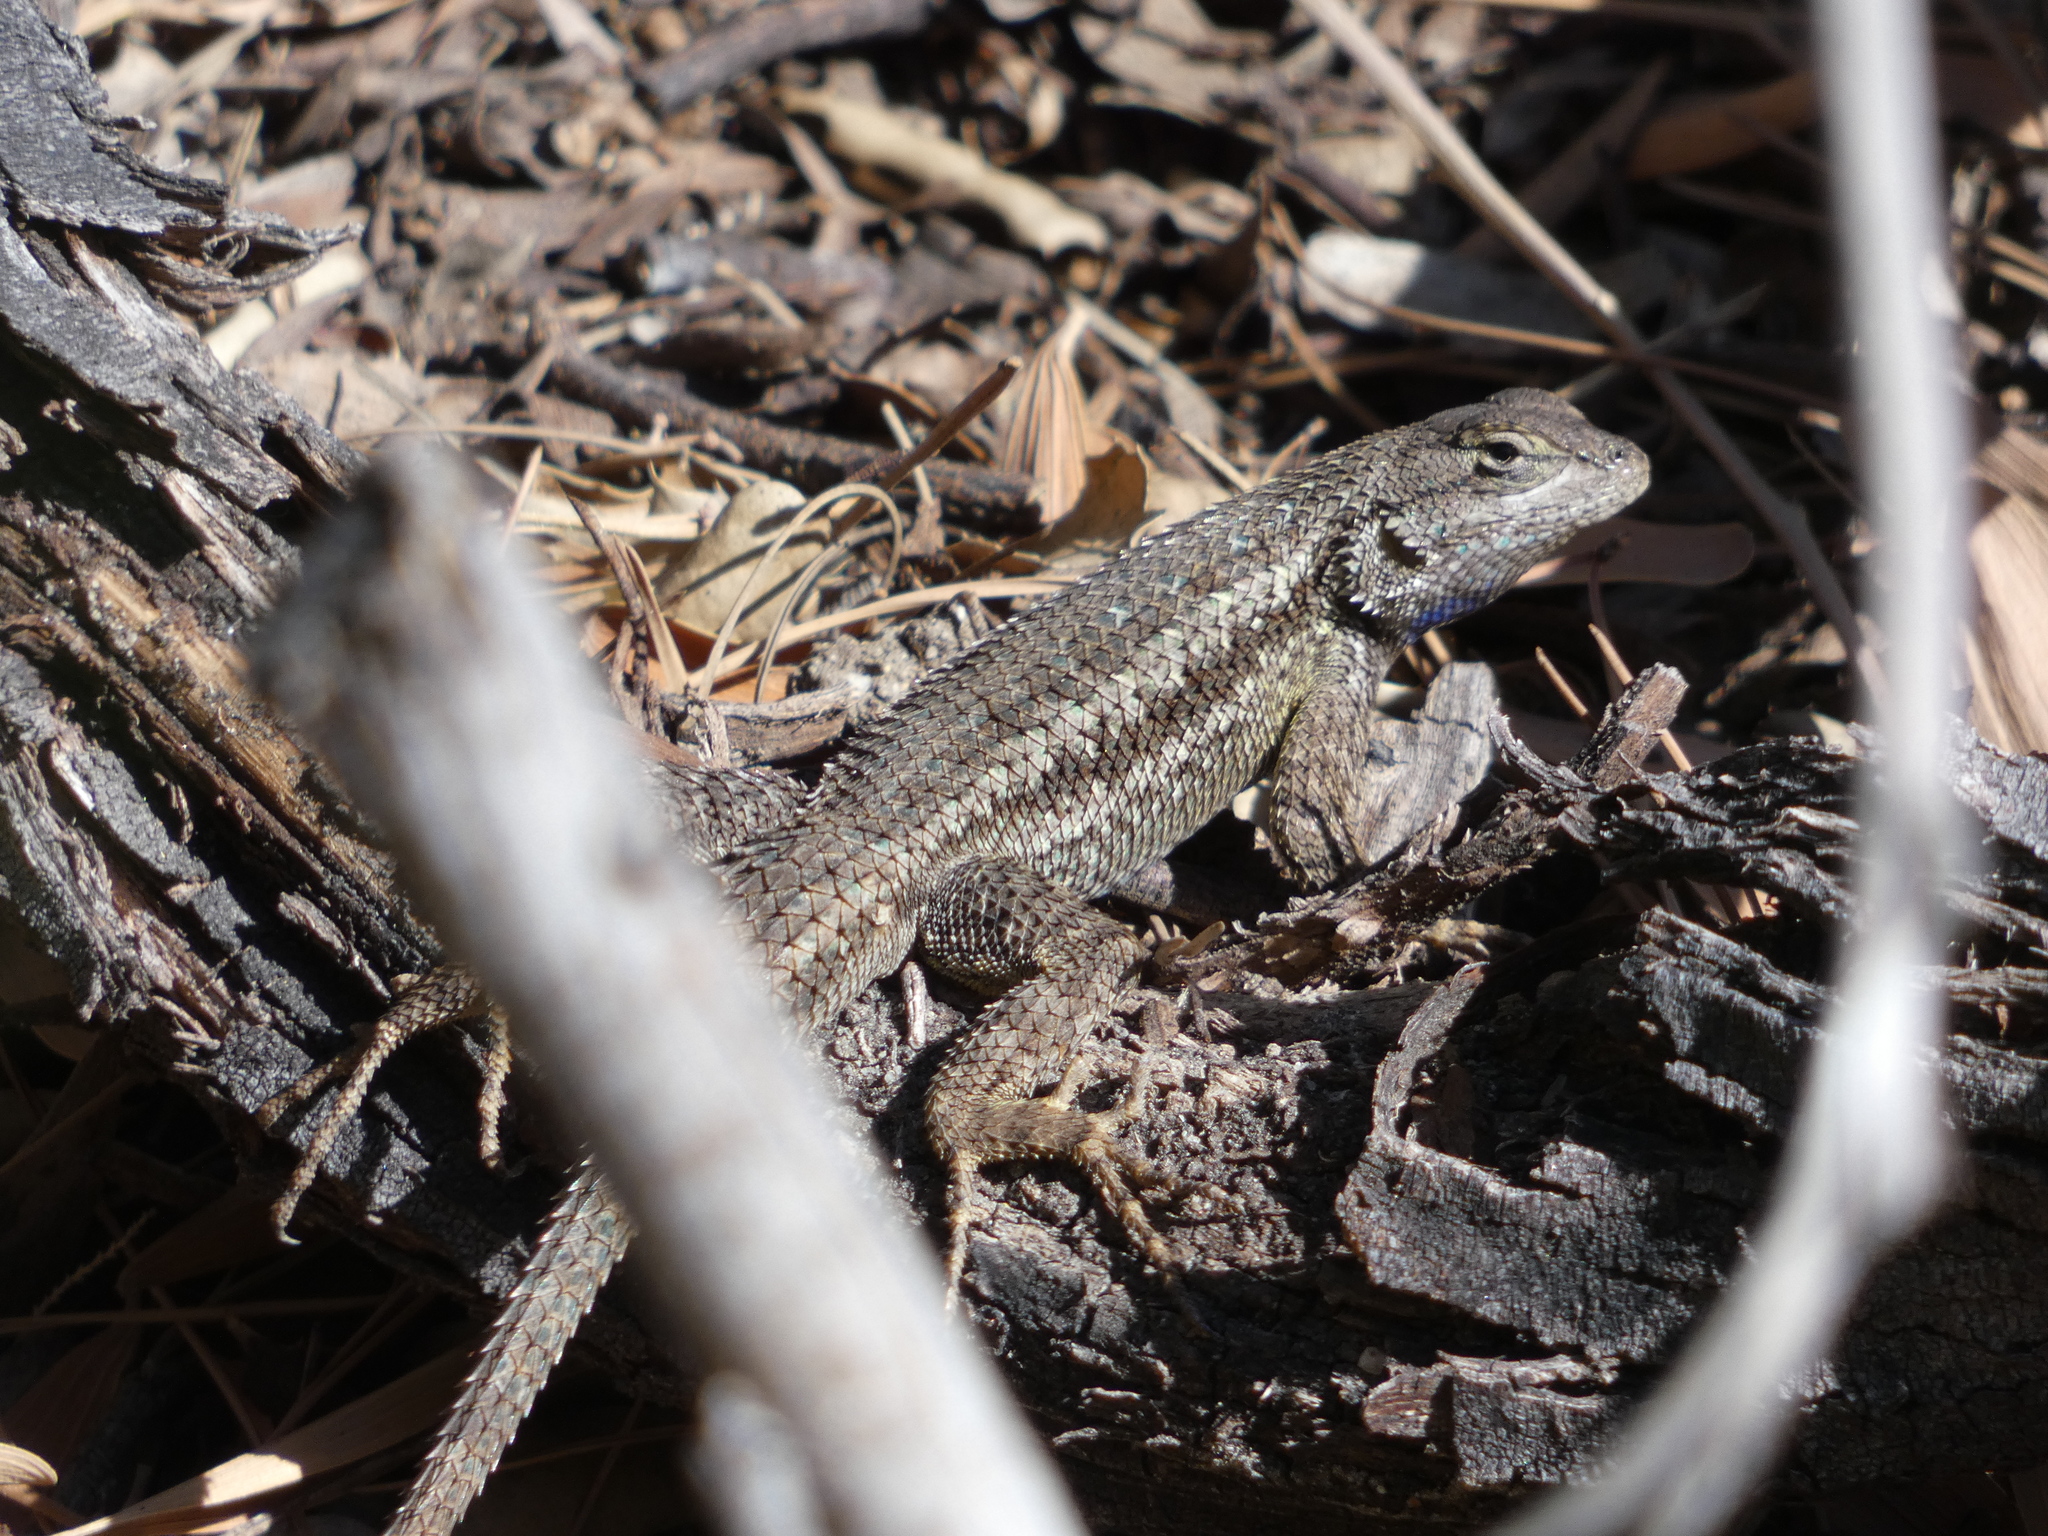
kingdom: Animalia
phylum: Chordata
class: Squamata
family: Phrynosomatidae
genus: Sceloporus
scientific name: Sceloporus occidentalis
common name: Western fence lizard
